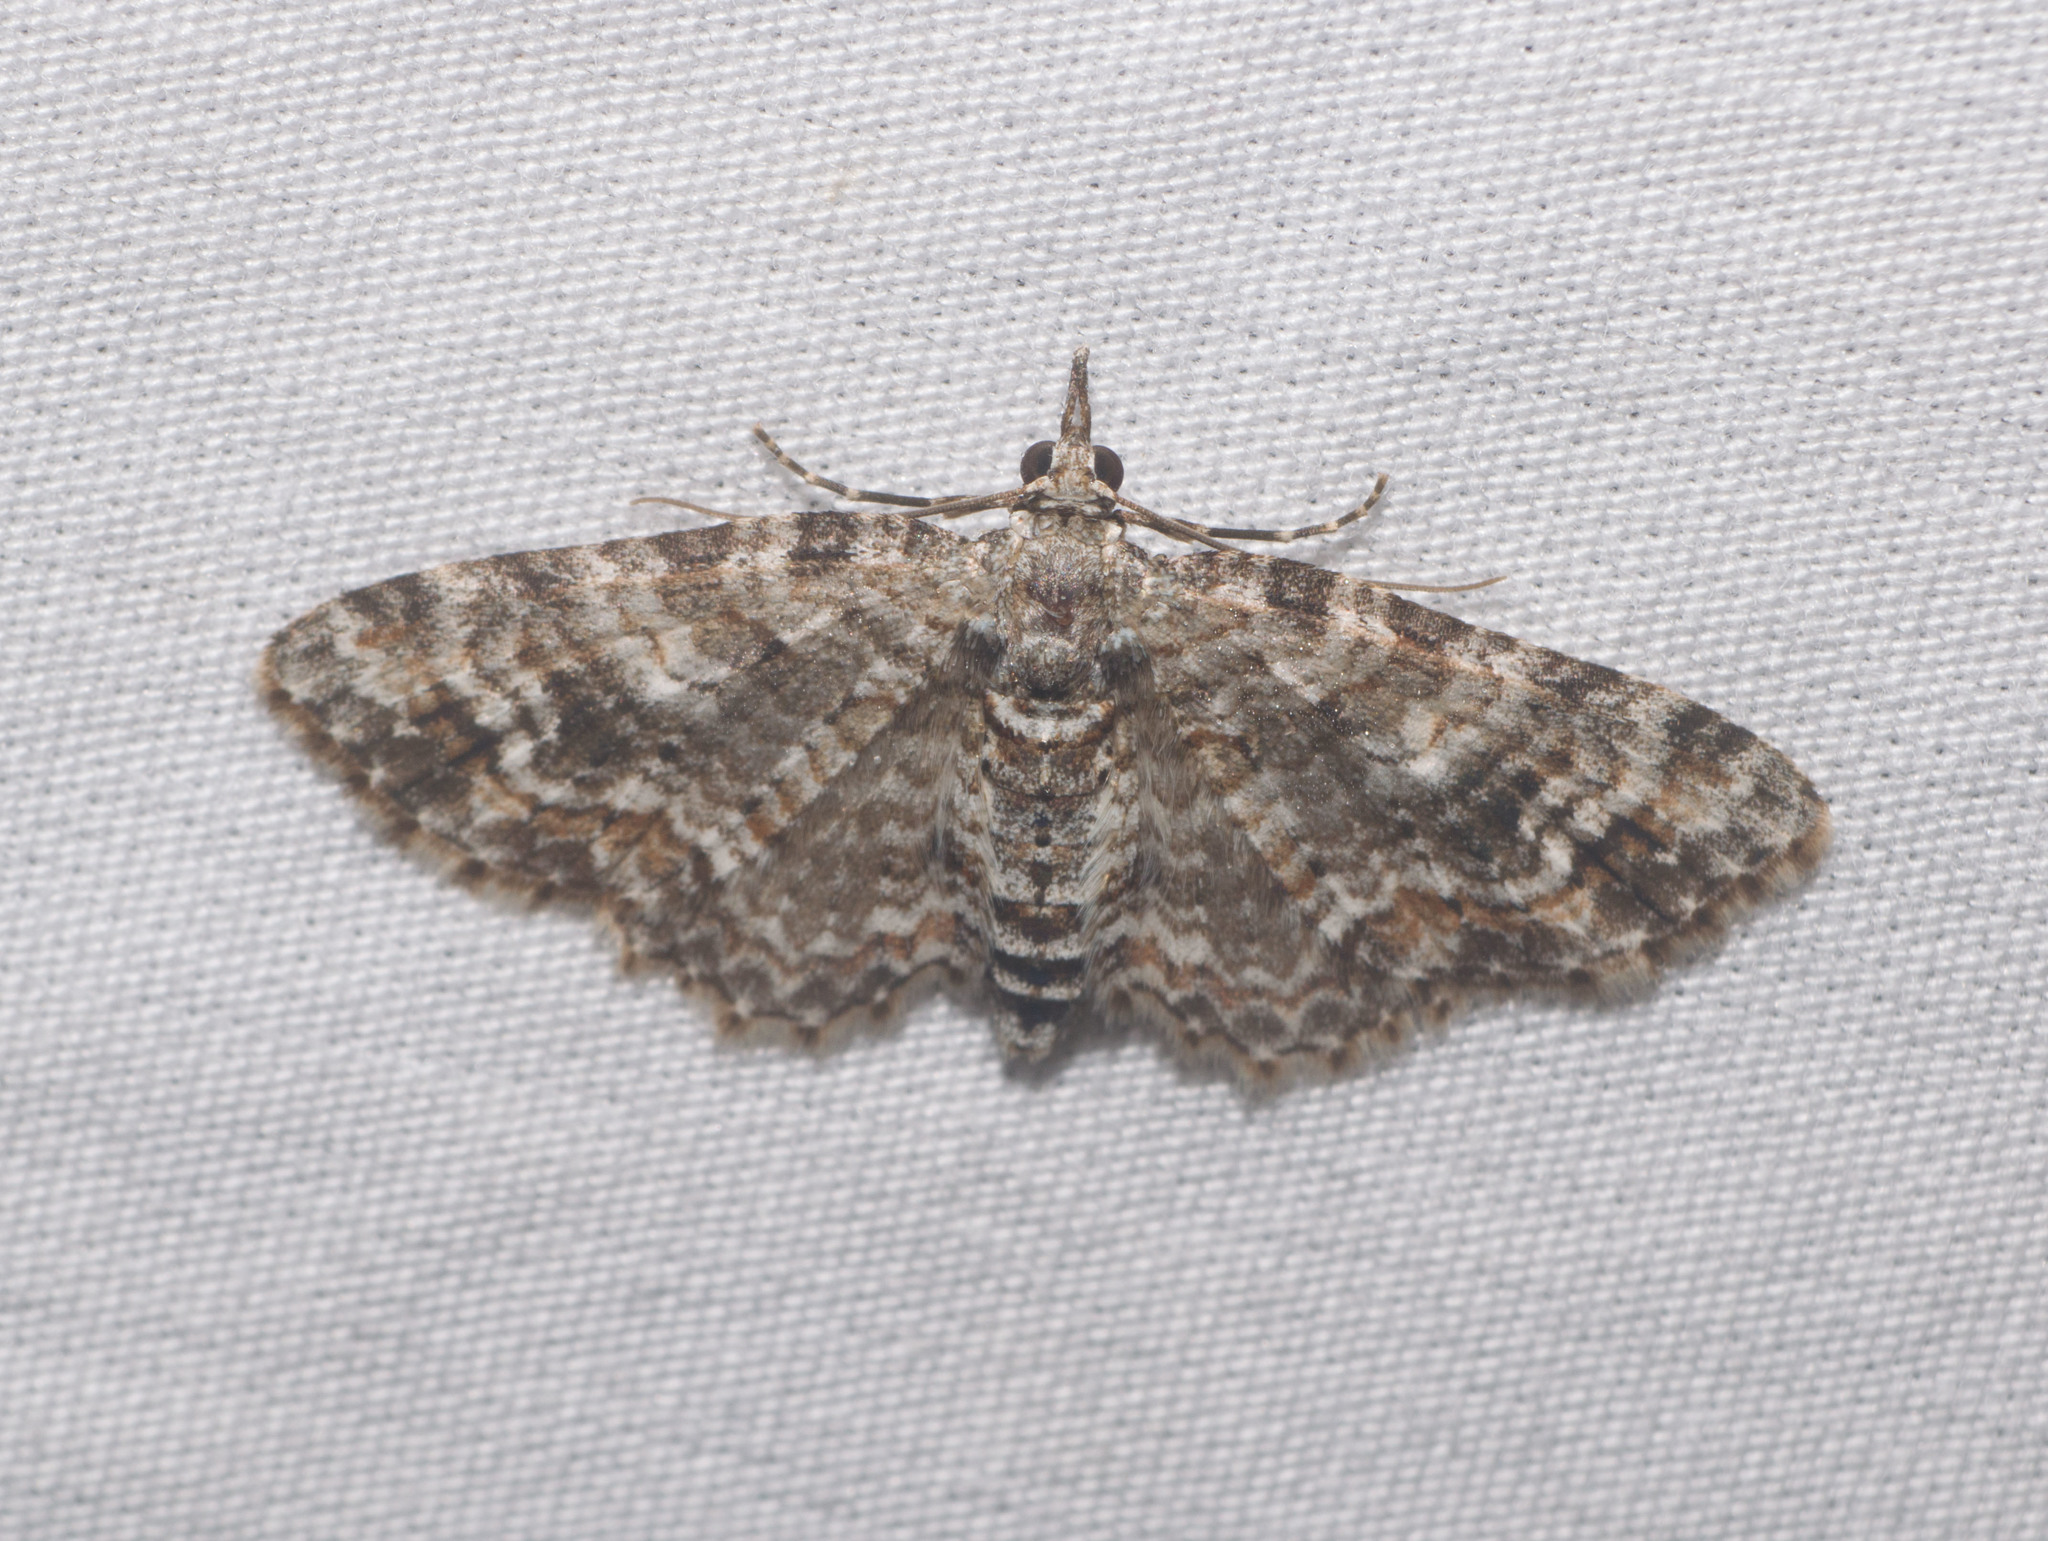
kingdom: Animalia
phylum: Arthropoda
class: Insecta
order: Lepidoptera
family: Geometridae
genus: Eupithecia
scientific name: Eupithecia monticolens
